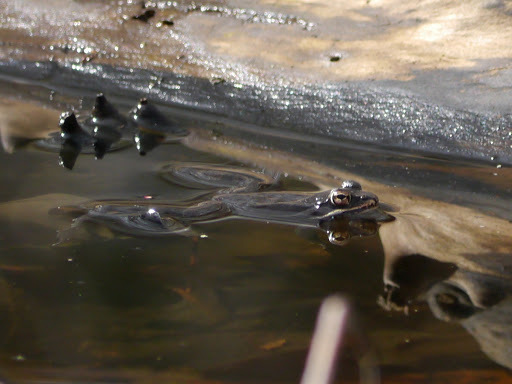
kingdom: Animalia
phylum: Chordata
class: Amphibia
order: Anura
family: Ranidae
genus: Lithobates
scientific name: Lithobates sylvaticus
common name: Wood frog
